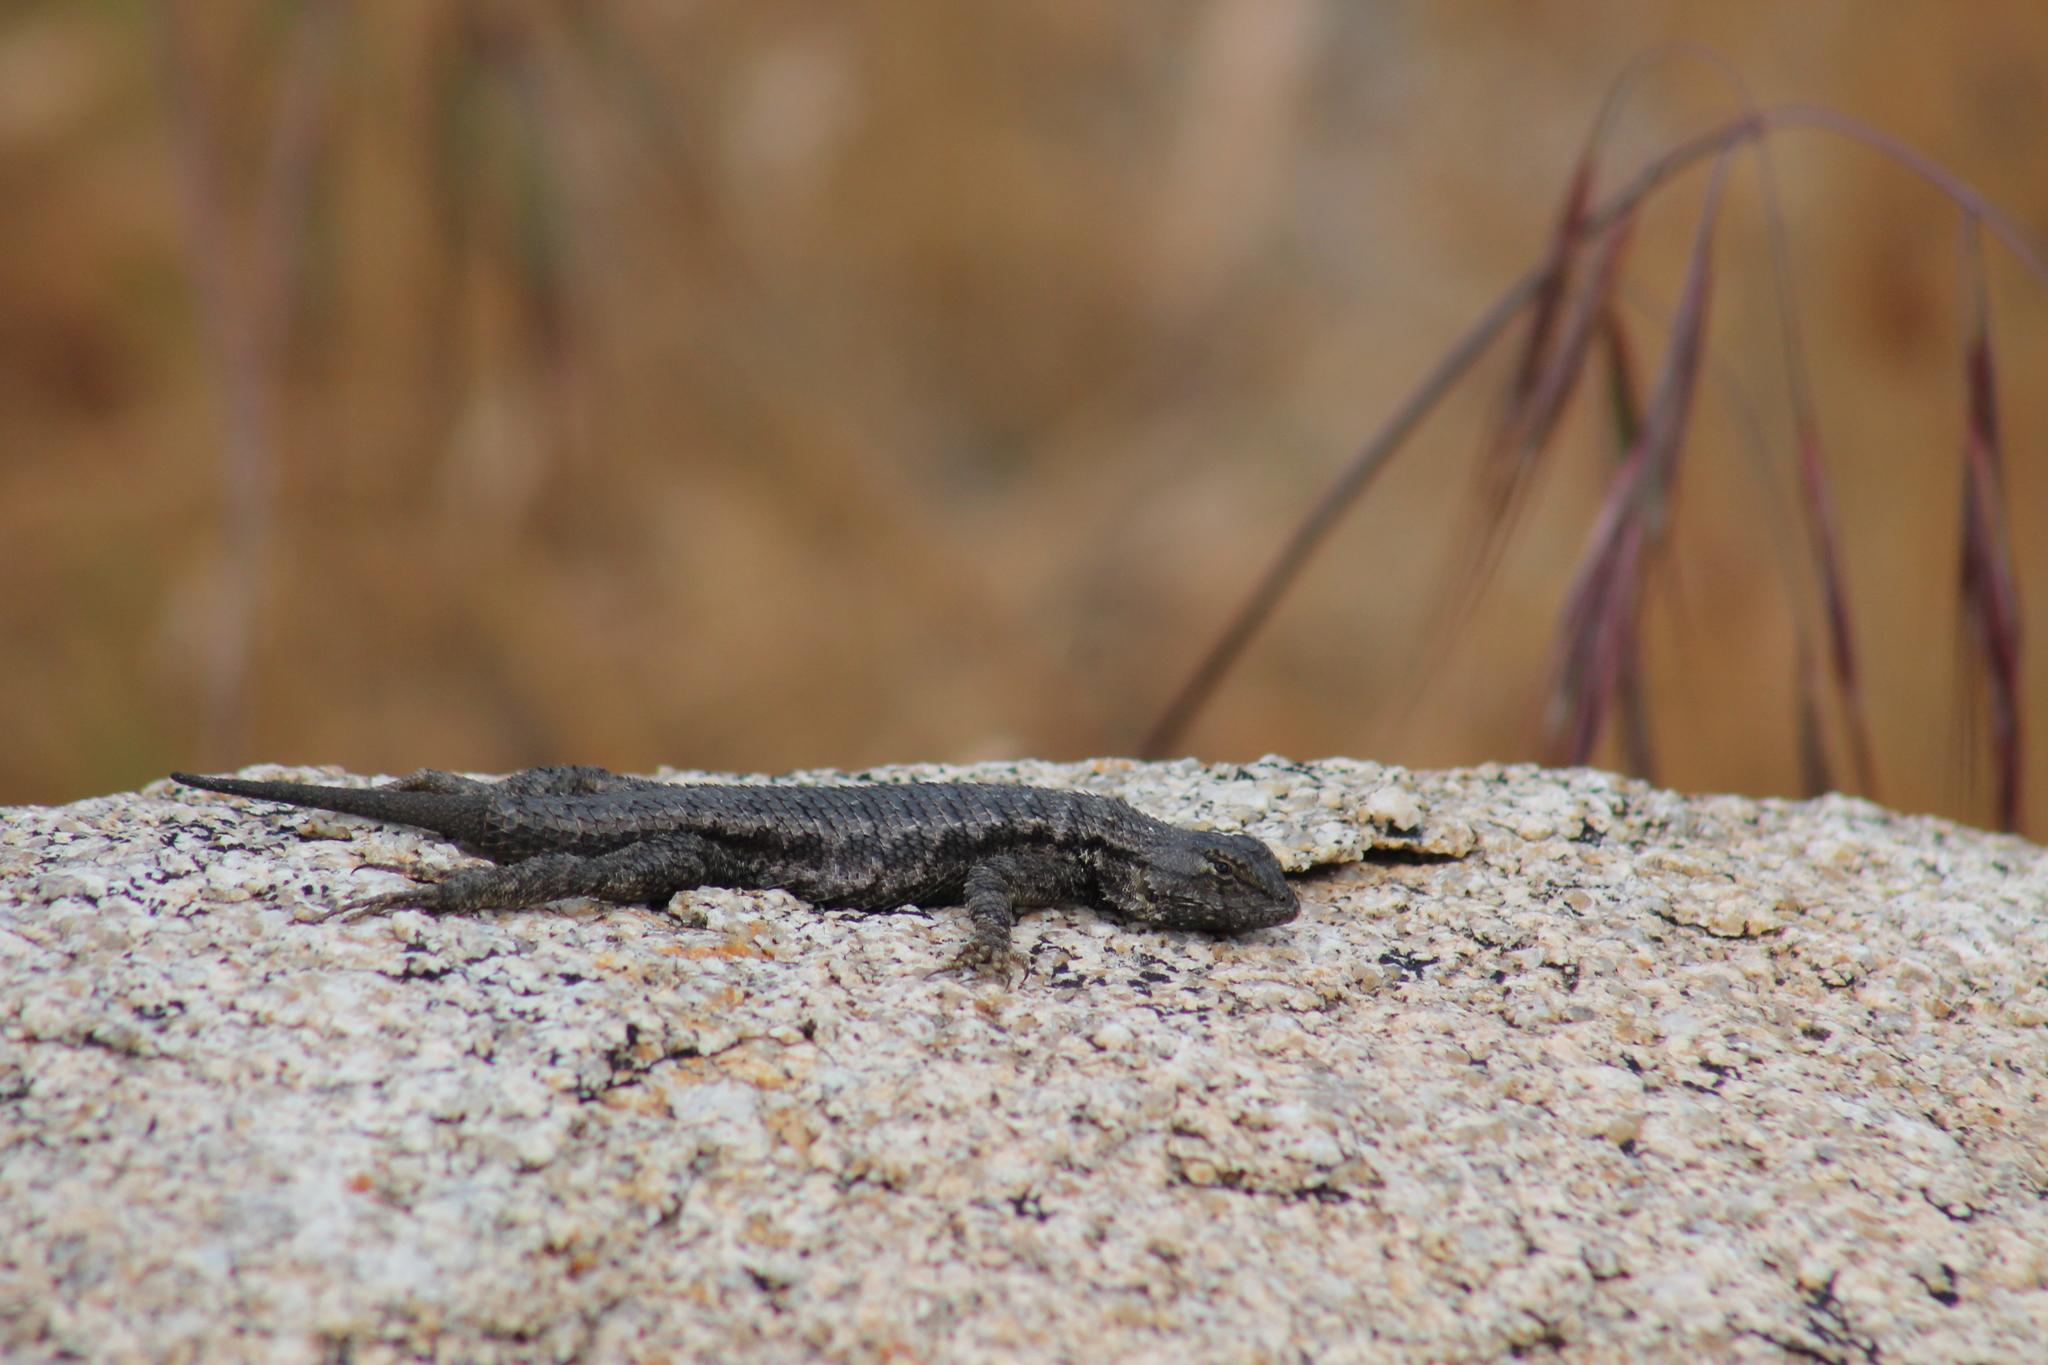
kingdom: Animalia
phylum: Chordata
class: Squamata
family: Phrynosomatidae
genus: Sceloporus
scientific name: Sceloporus occidentalis
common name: Western fence lizard
